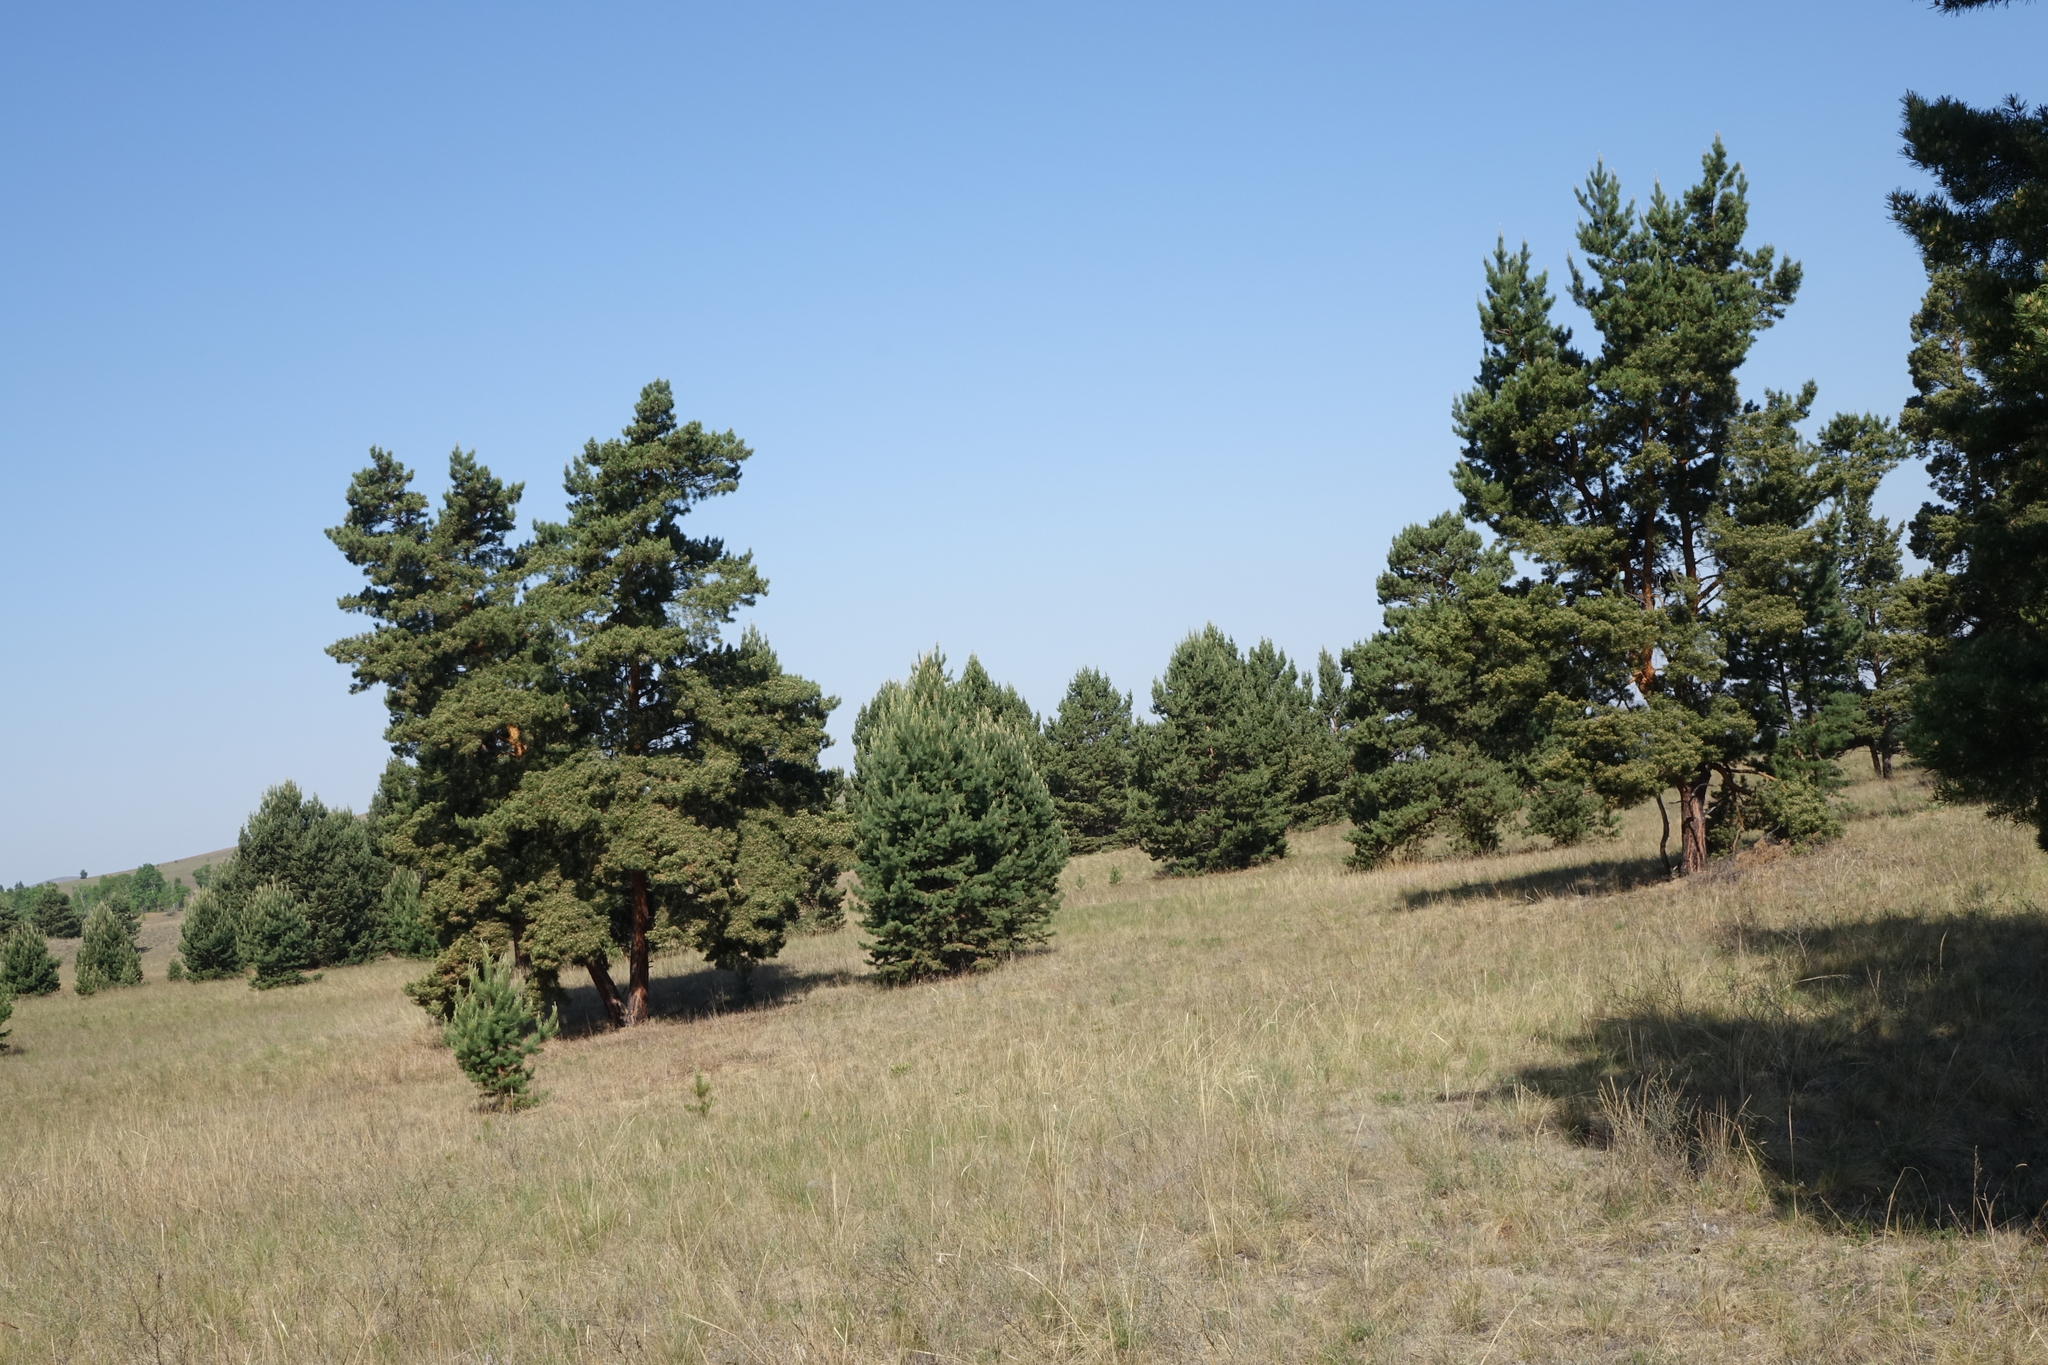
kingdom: Plantae
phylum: Tracheophyta
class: Pinopsida
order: Pinales
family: Pinaceae
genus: Pinus
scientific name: Pinus sylvestris
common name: Scots pine
